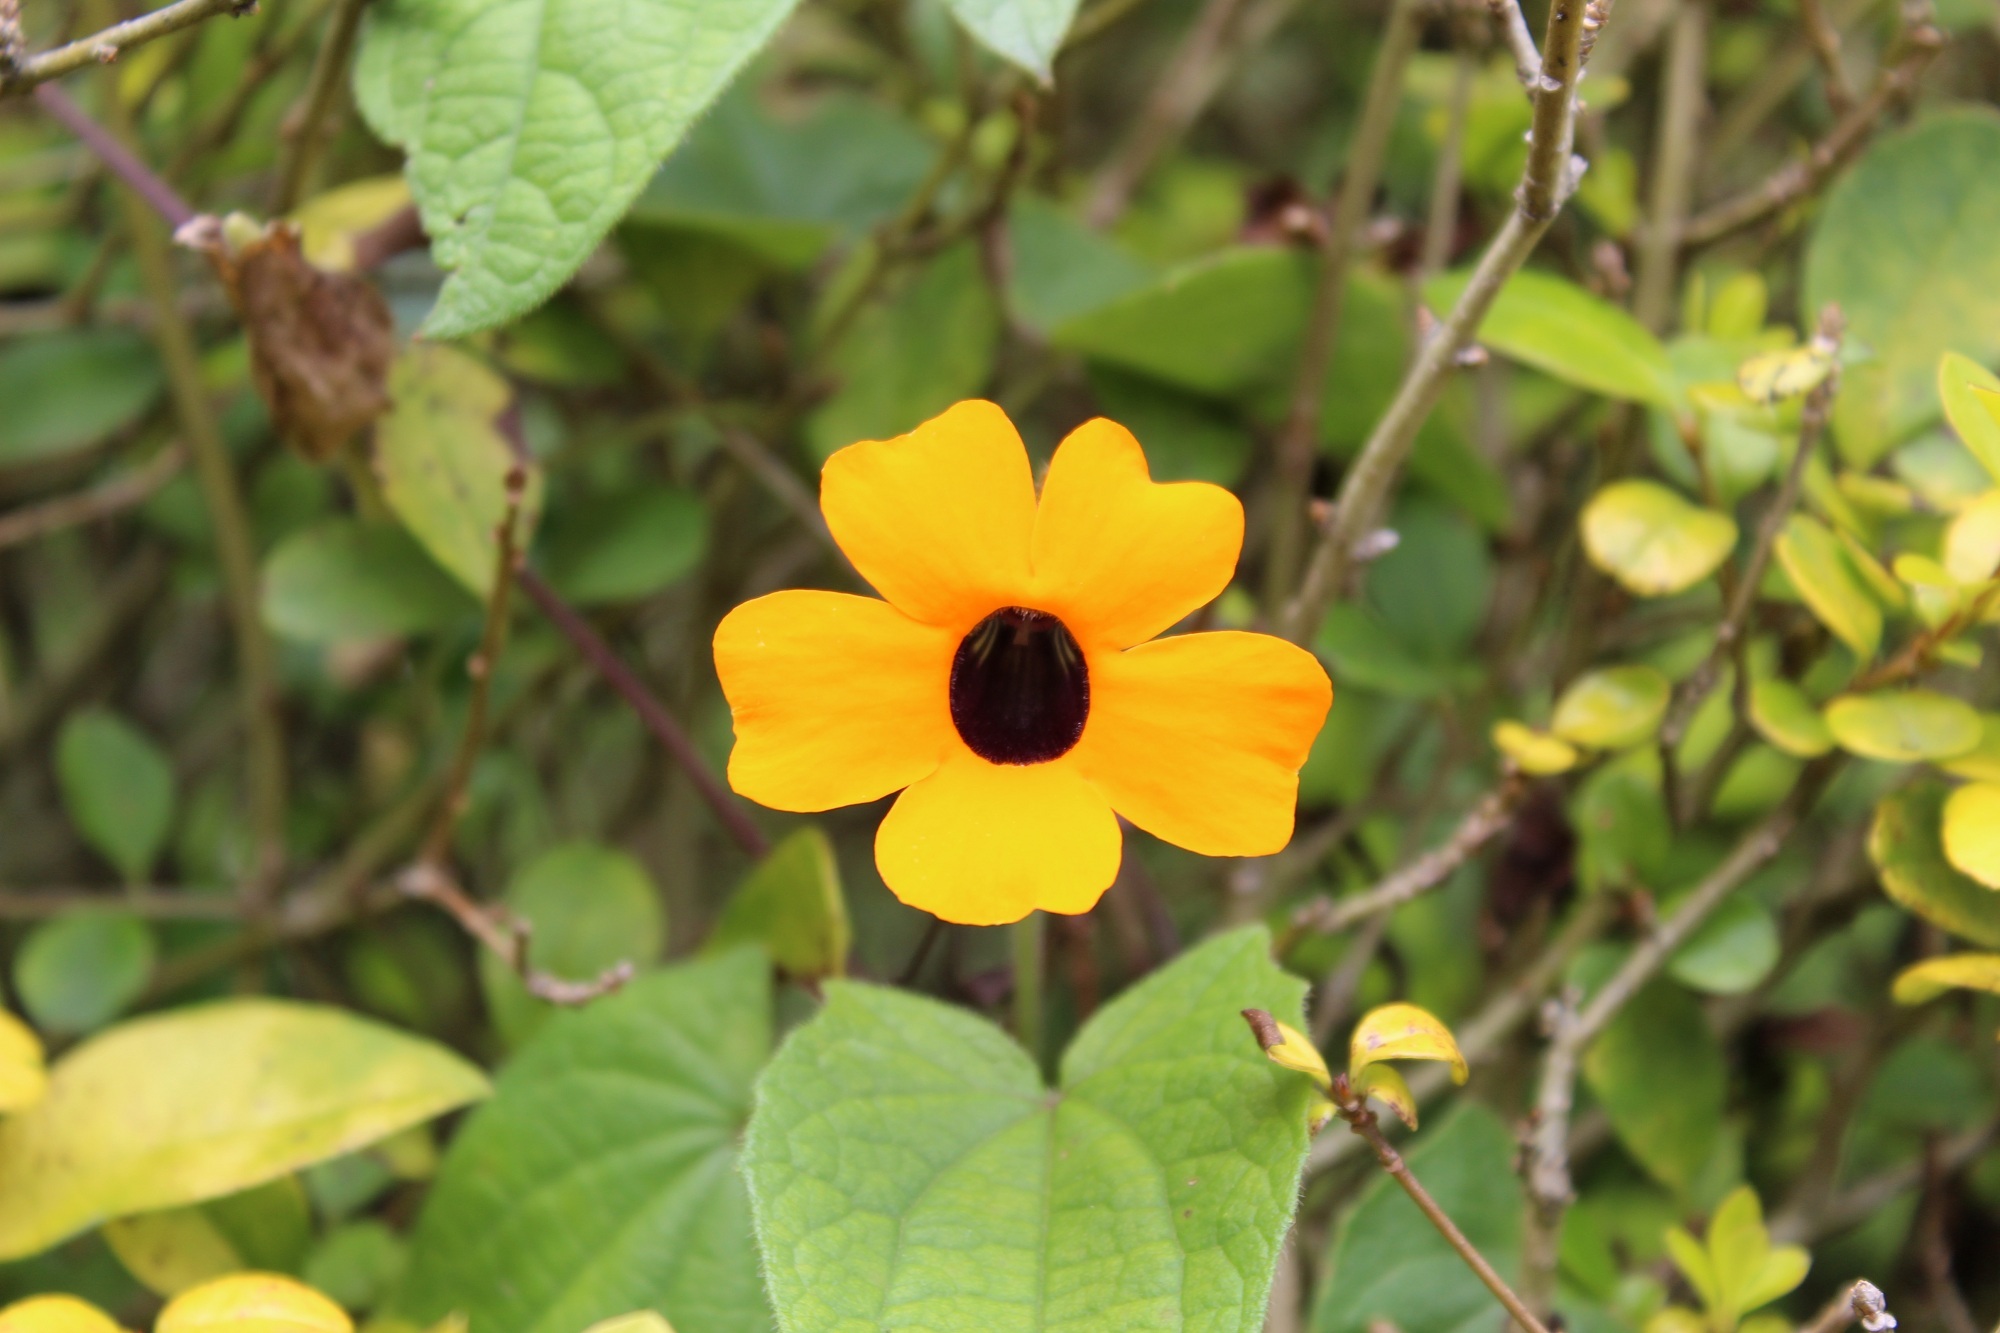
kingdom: Plantae
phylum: Tracheophyta
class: Magnoliopsida
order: Lamiales
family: Acanthaceae
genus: Thunbergia
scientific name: Thunbergia alata
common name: Blackeyed susan vine
